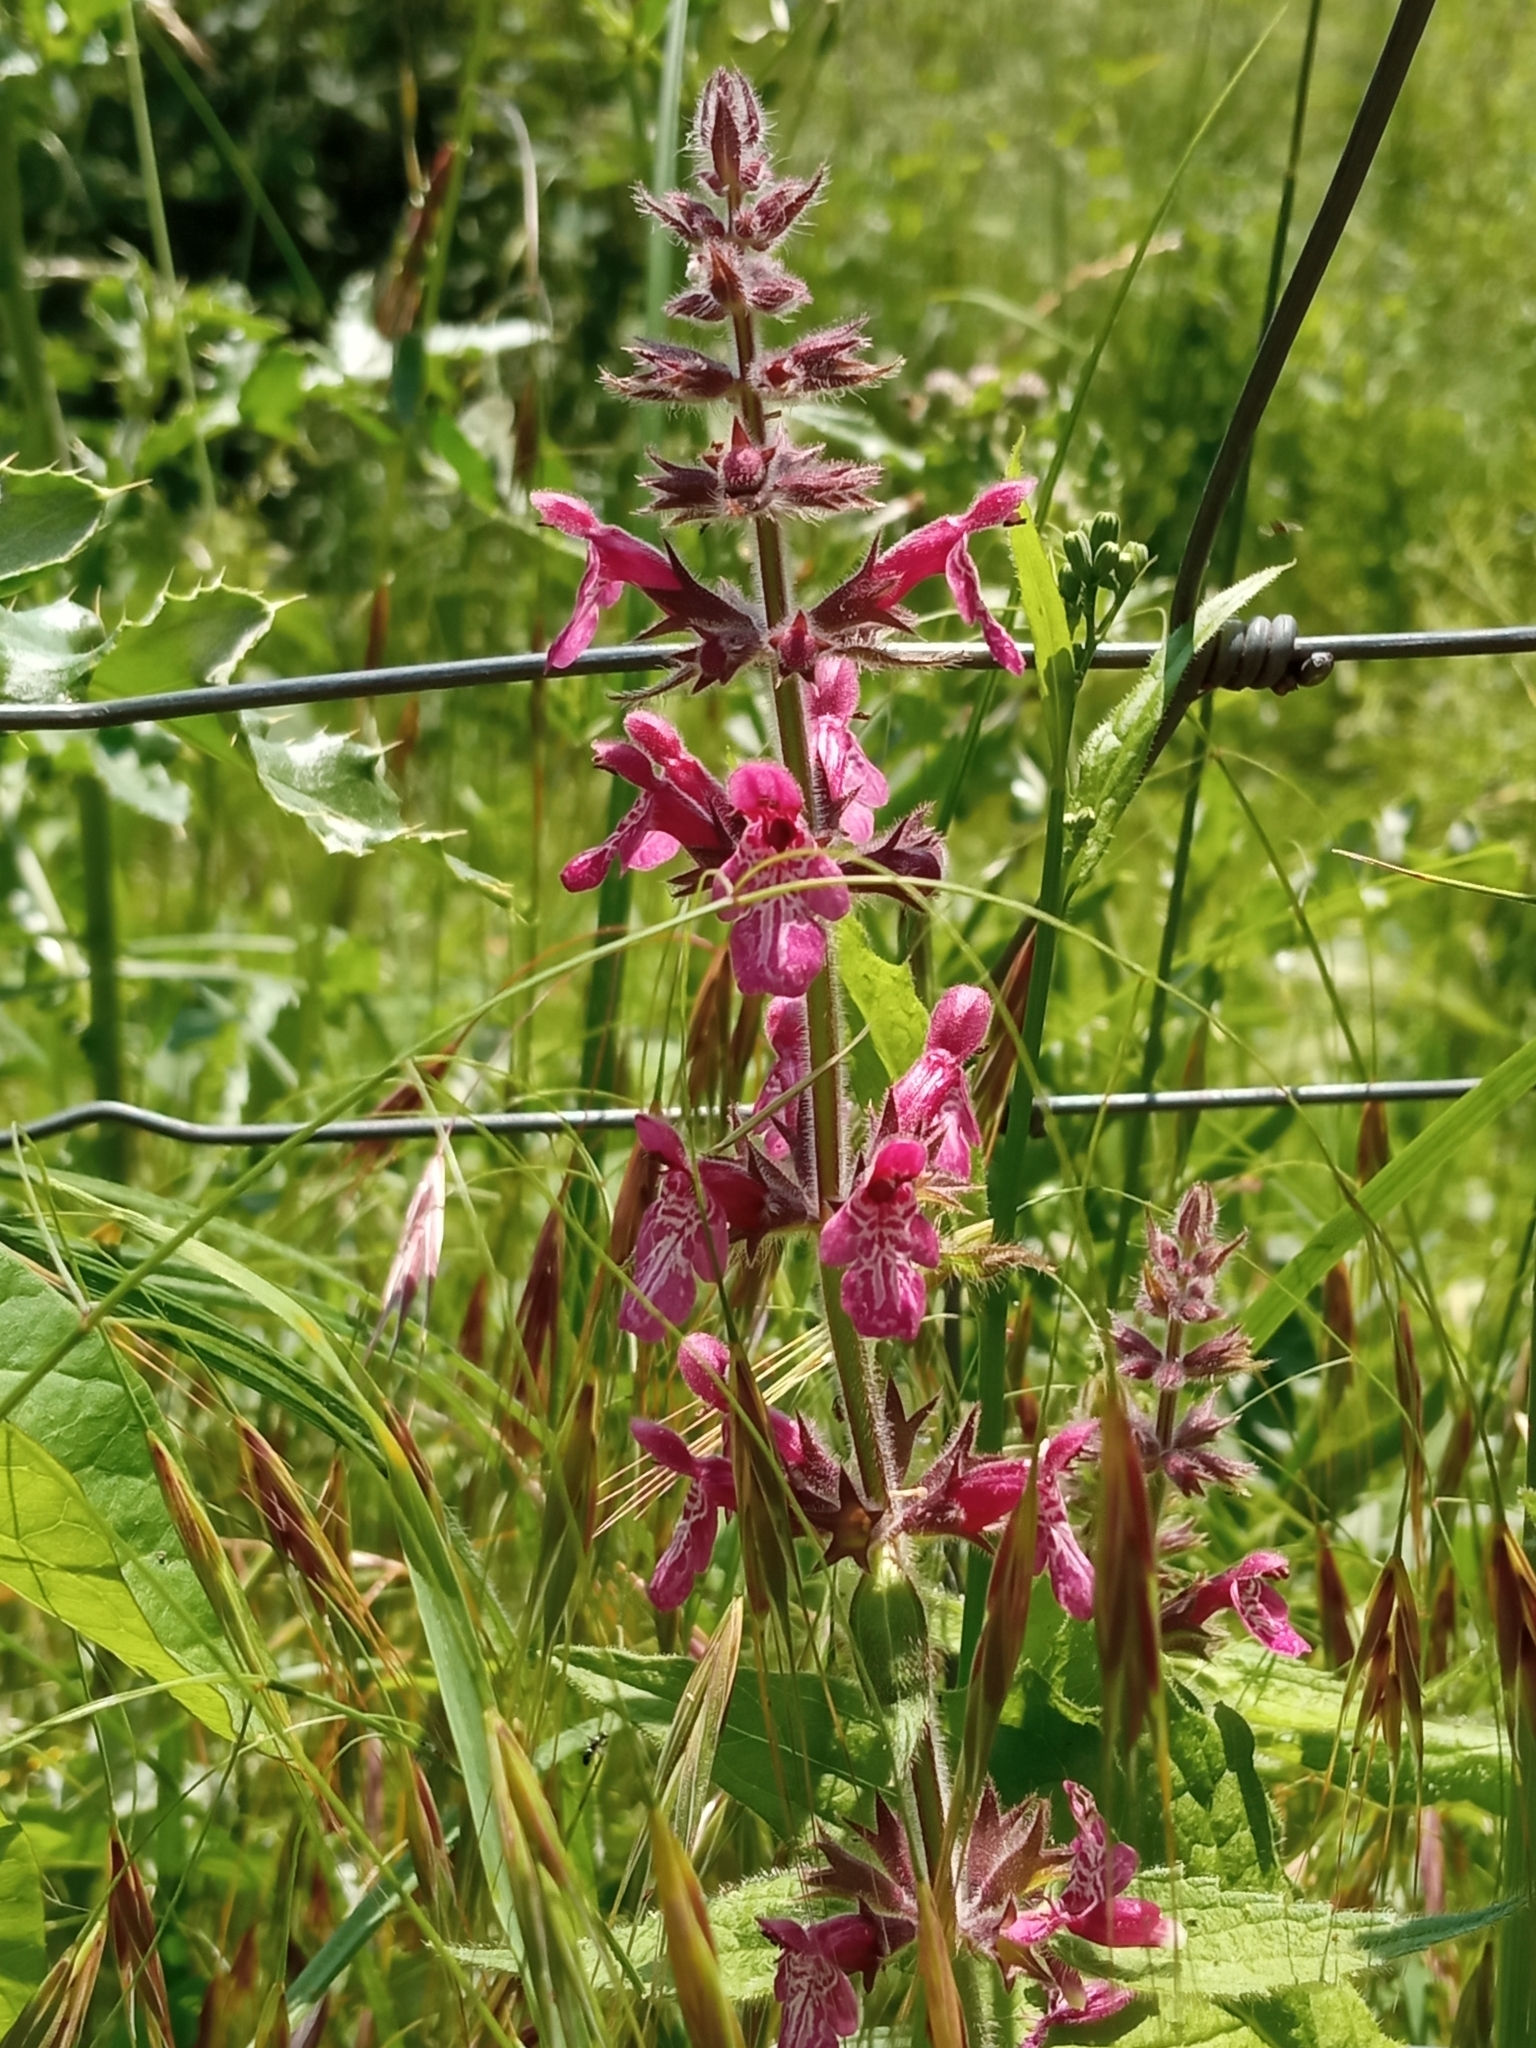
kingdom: Plantae
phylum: Tracheophyta
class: Magnoliopsida
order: Lamiales
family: Lamiaceae
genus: Stachys
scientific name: Stachys sylvatica
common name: Hedge woundwort
